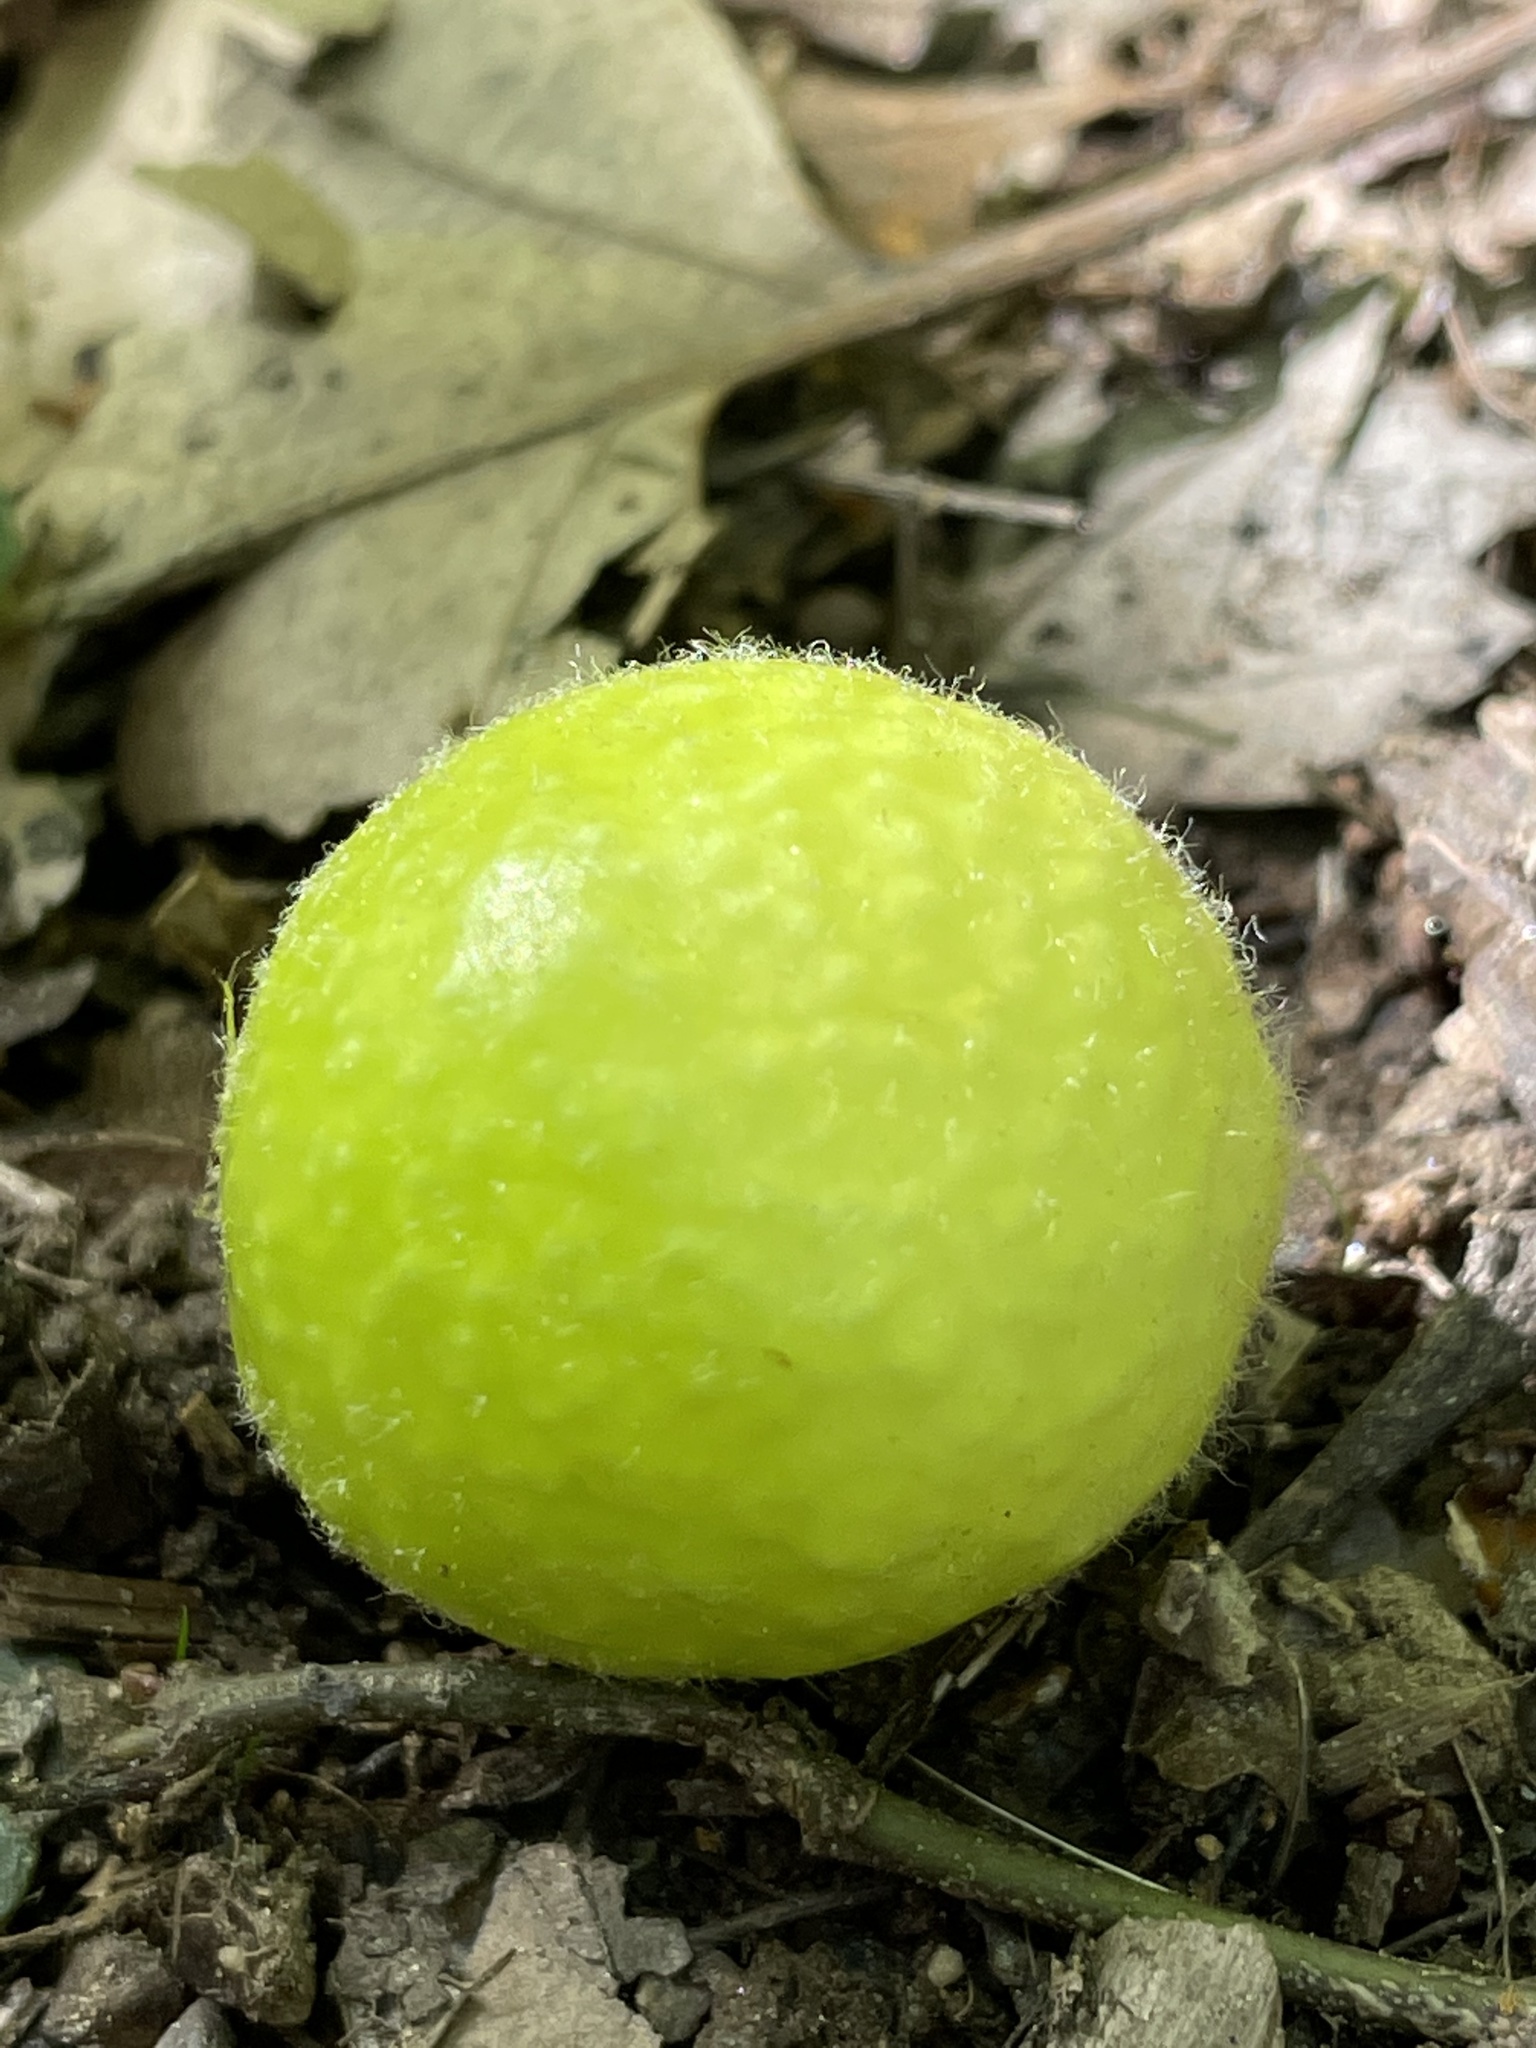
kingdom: Animalia
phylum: Arthropoda
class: Insecta
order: Hymenoptera
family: Cynipidae
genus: Amphibolips
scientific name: Amphibolips
